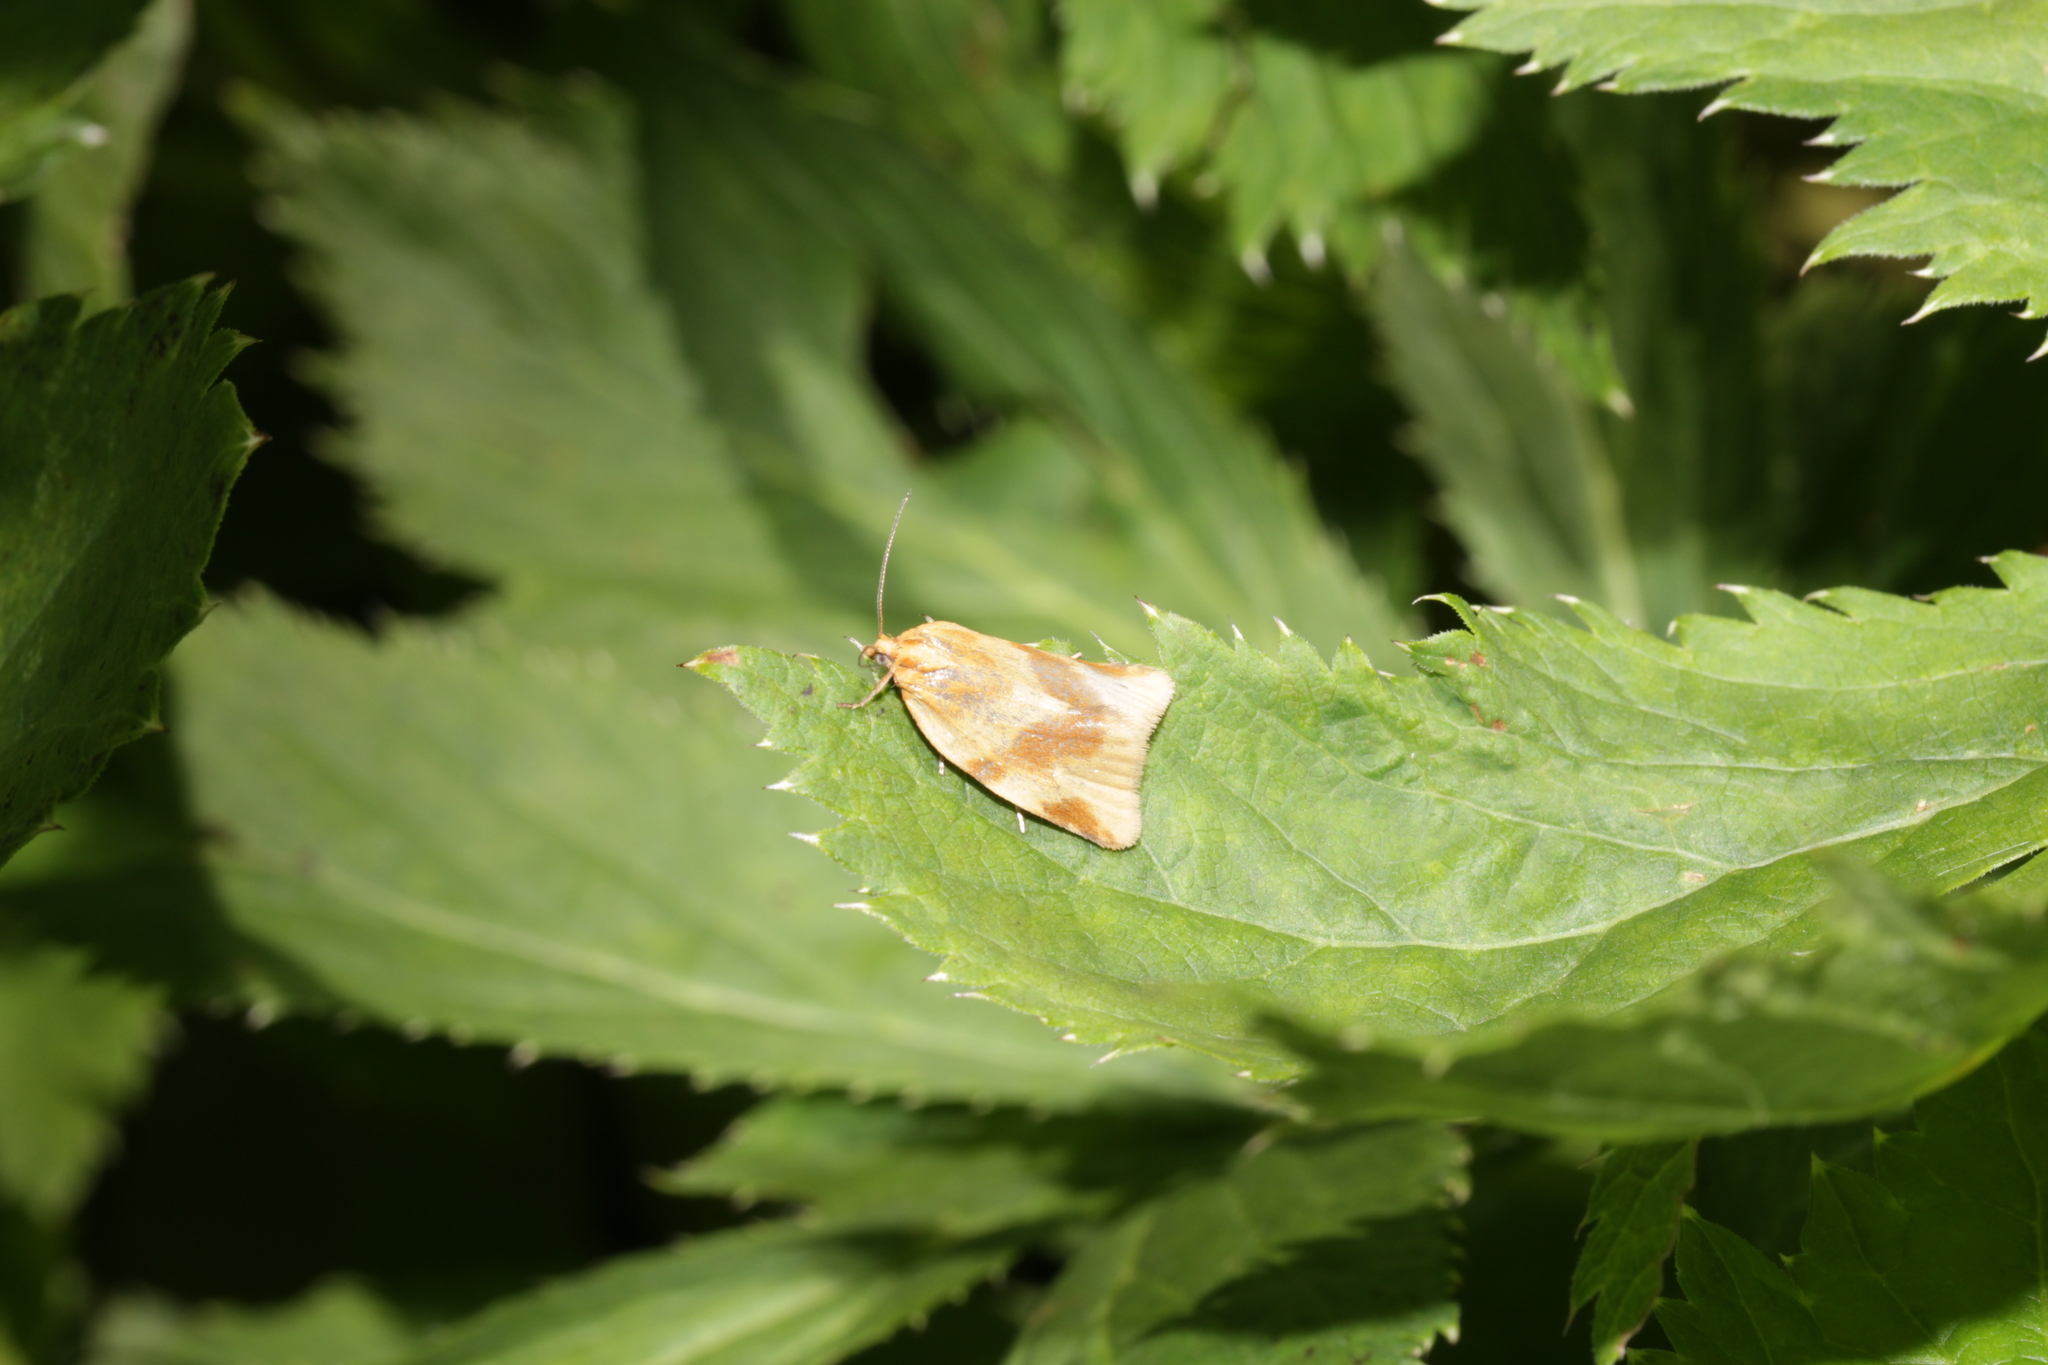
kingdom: Animalia
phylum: Arthropoda
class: Insecta
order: Lepidoptera
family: Tortricidae
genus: Clepsis
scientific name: Clepsis steineriana
